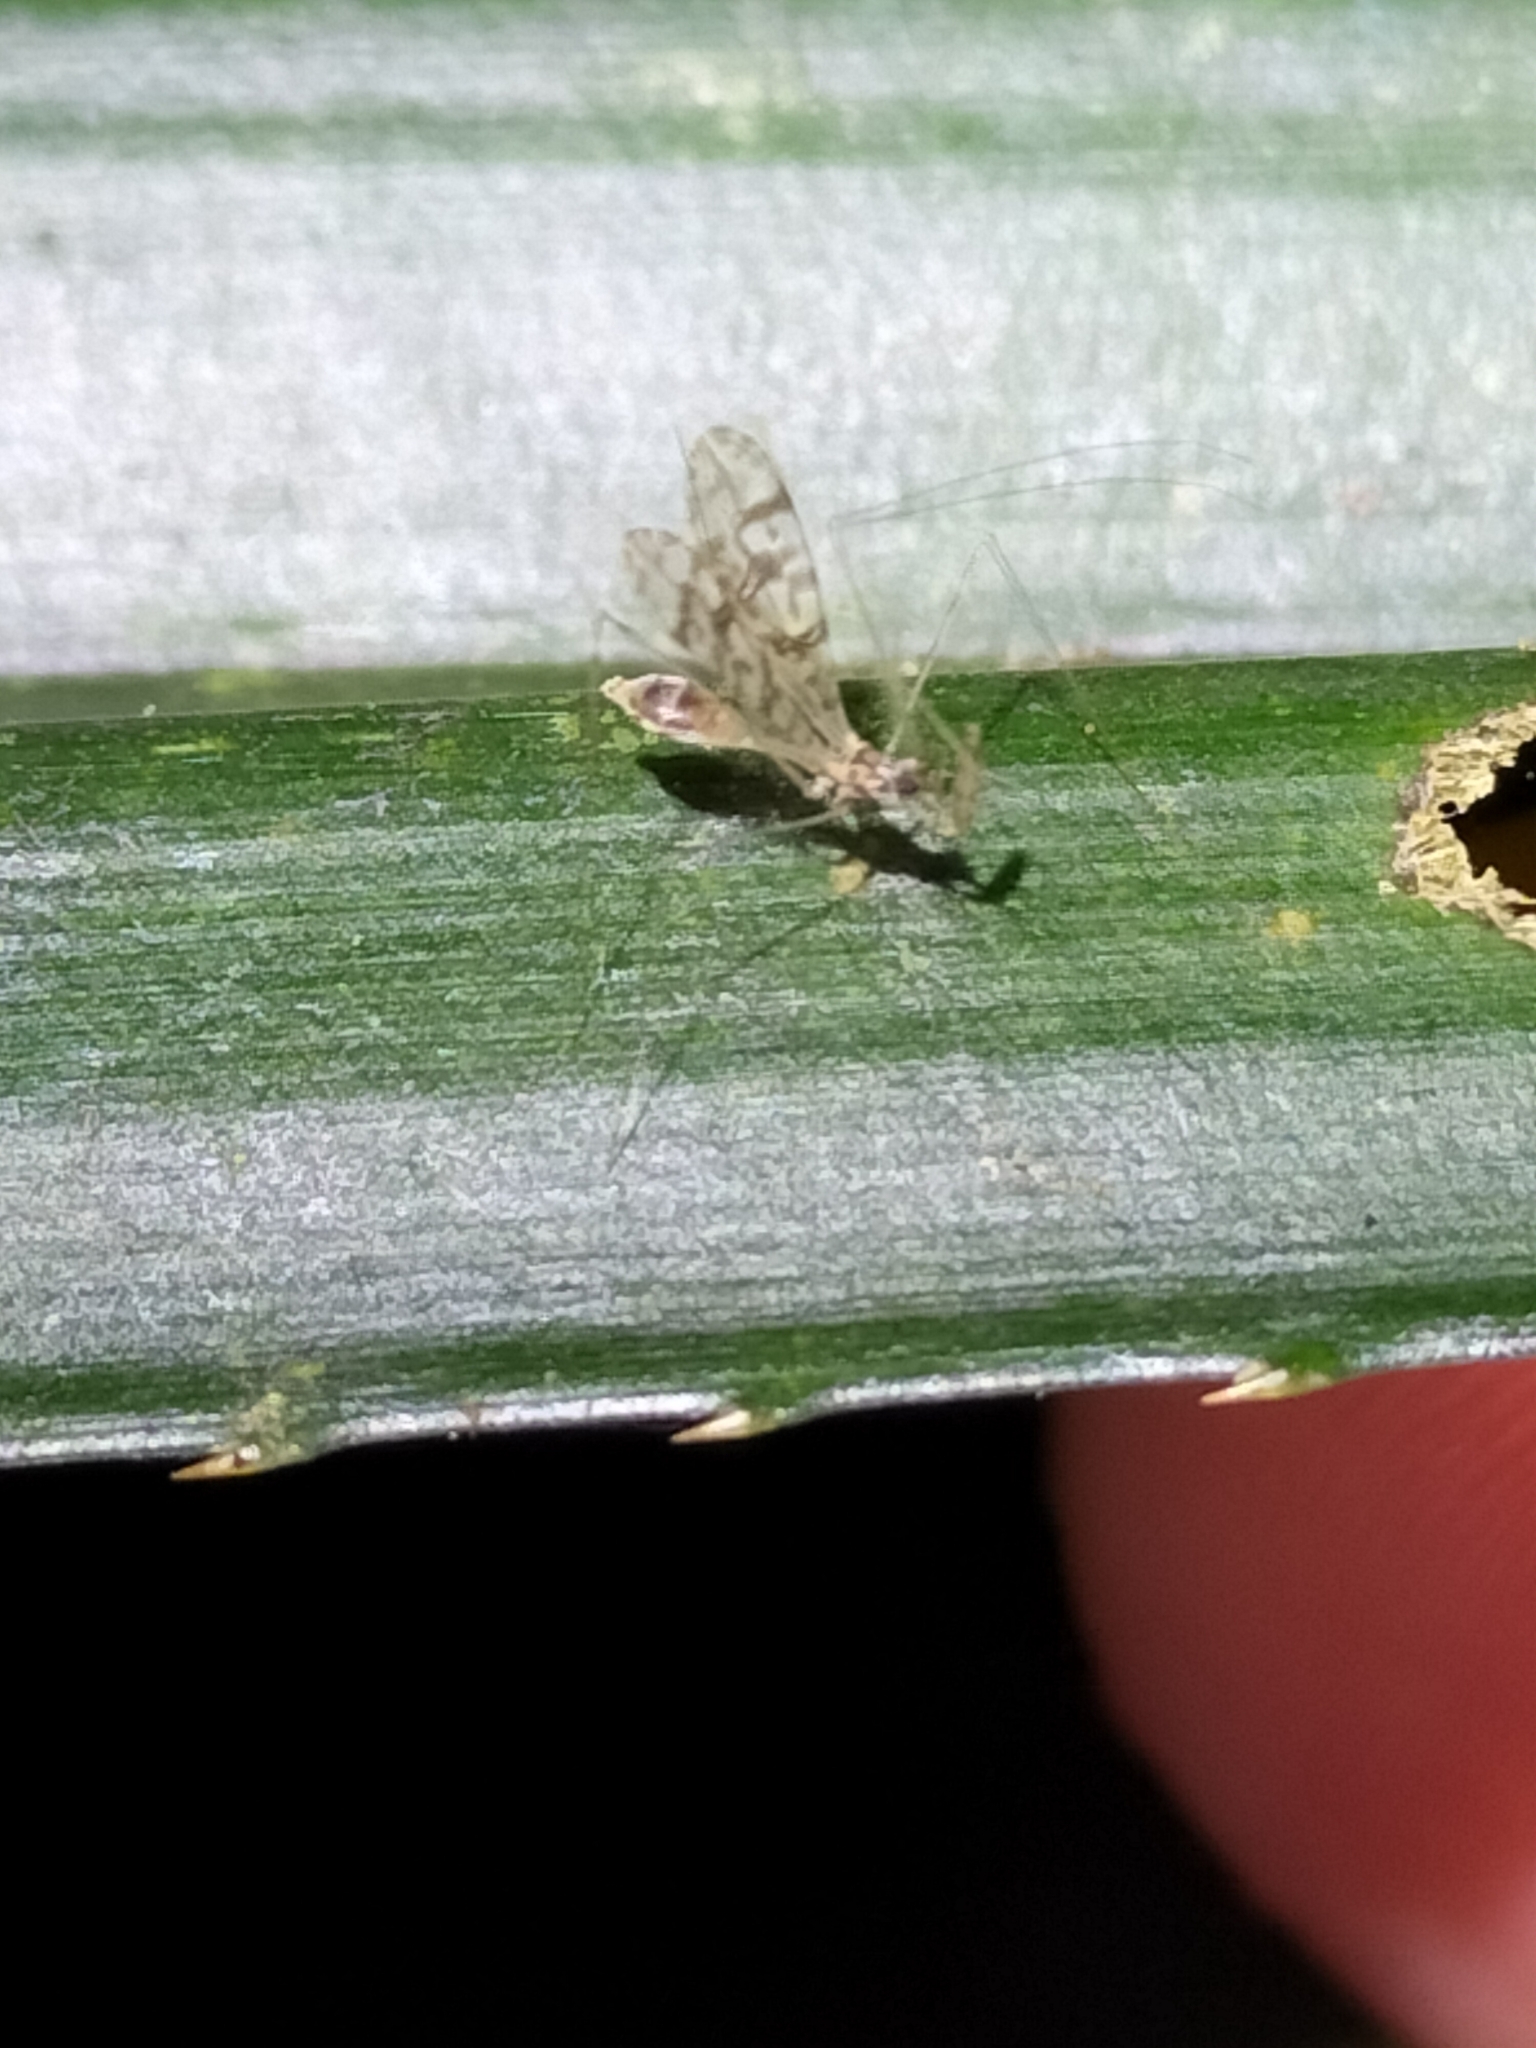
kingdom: Animalia
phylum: Arthropoda
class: Insecta
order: Hemiptera
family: Reduviidae
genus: Mesosepis
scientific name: Mesosepis papua
